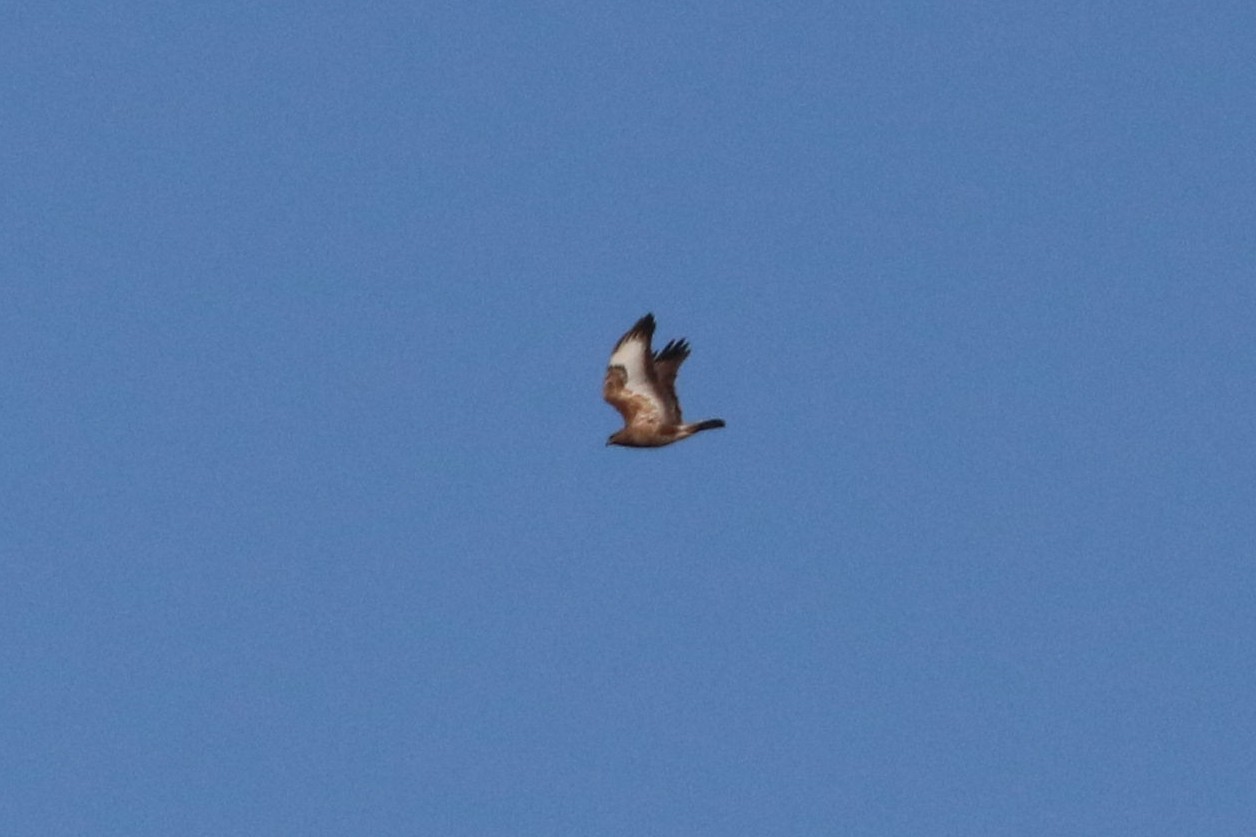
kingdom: Animalia
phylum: Chordata
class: Aves
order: Accipitriformes
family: Accipitridae
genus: Buteo
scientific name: Buteo buteo
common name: Common buzzard
